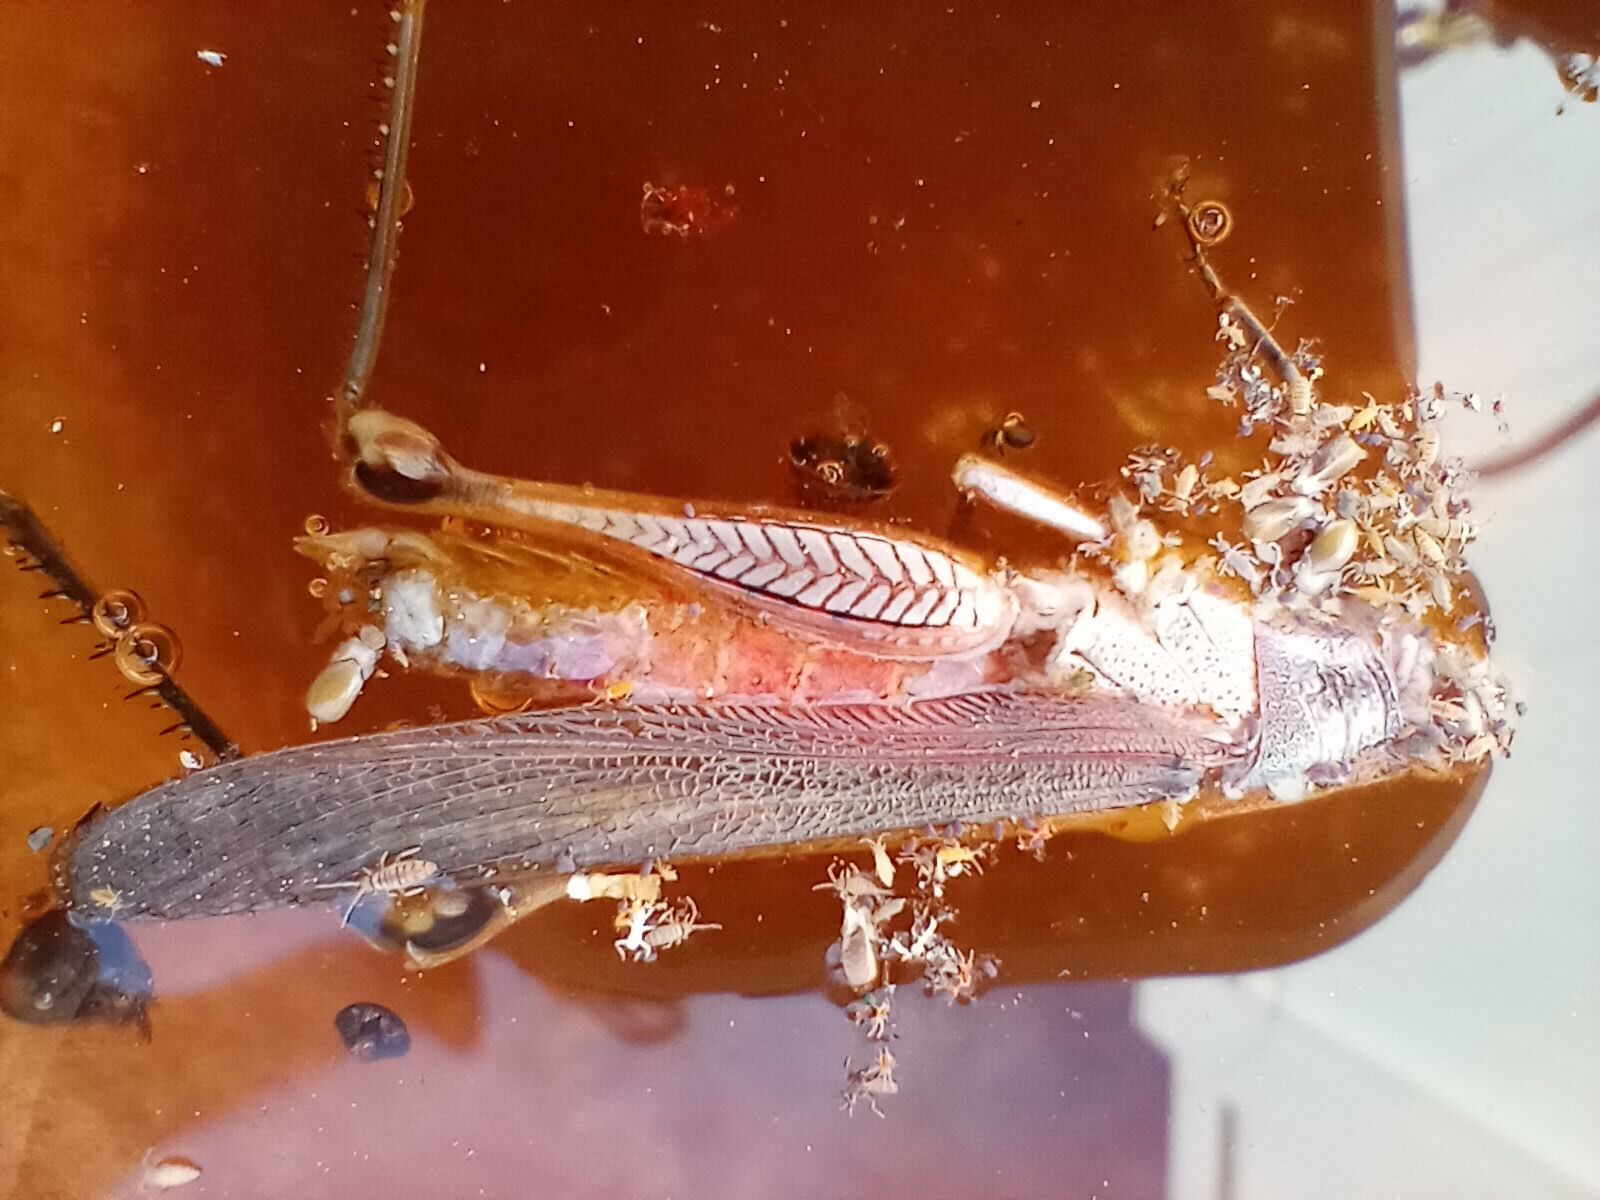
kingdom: Animalia
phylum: Arthropoda
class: Insecta
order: Orthoptera
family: Acrididae
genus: Schistocerca
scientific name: Schistocerca nitens
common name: Vagrant grasshopper
